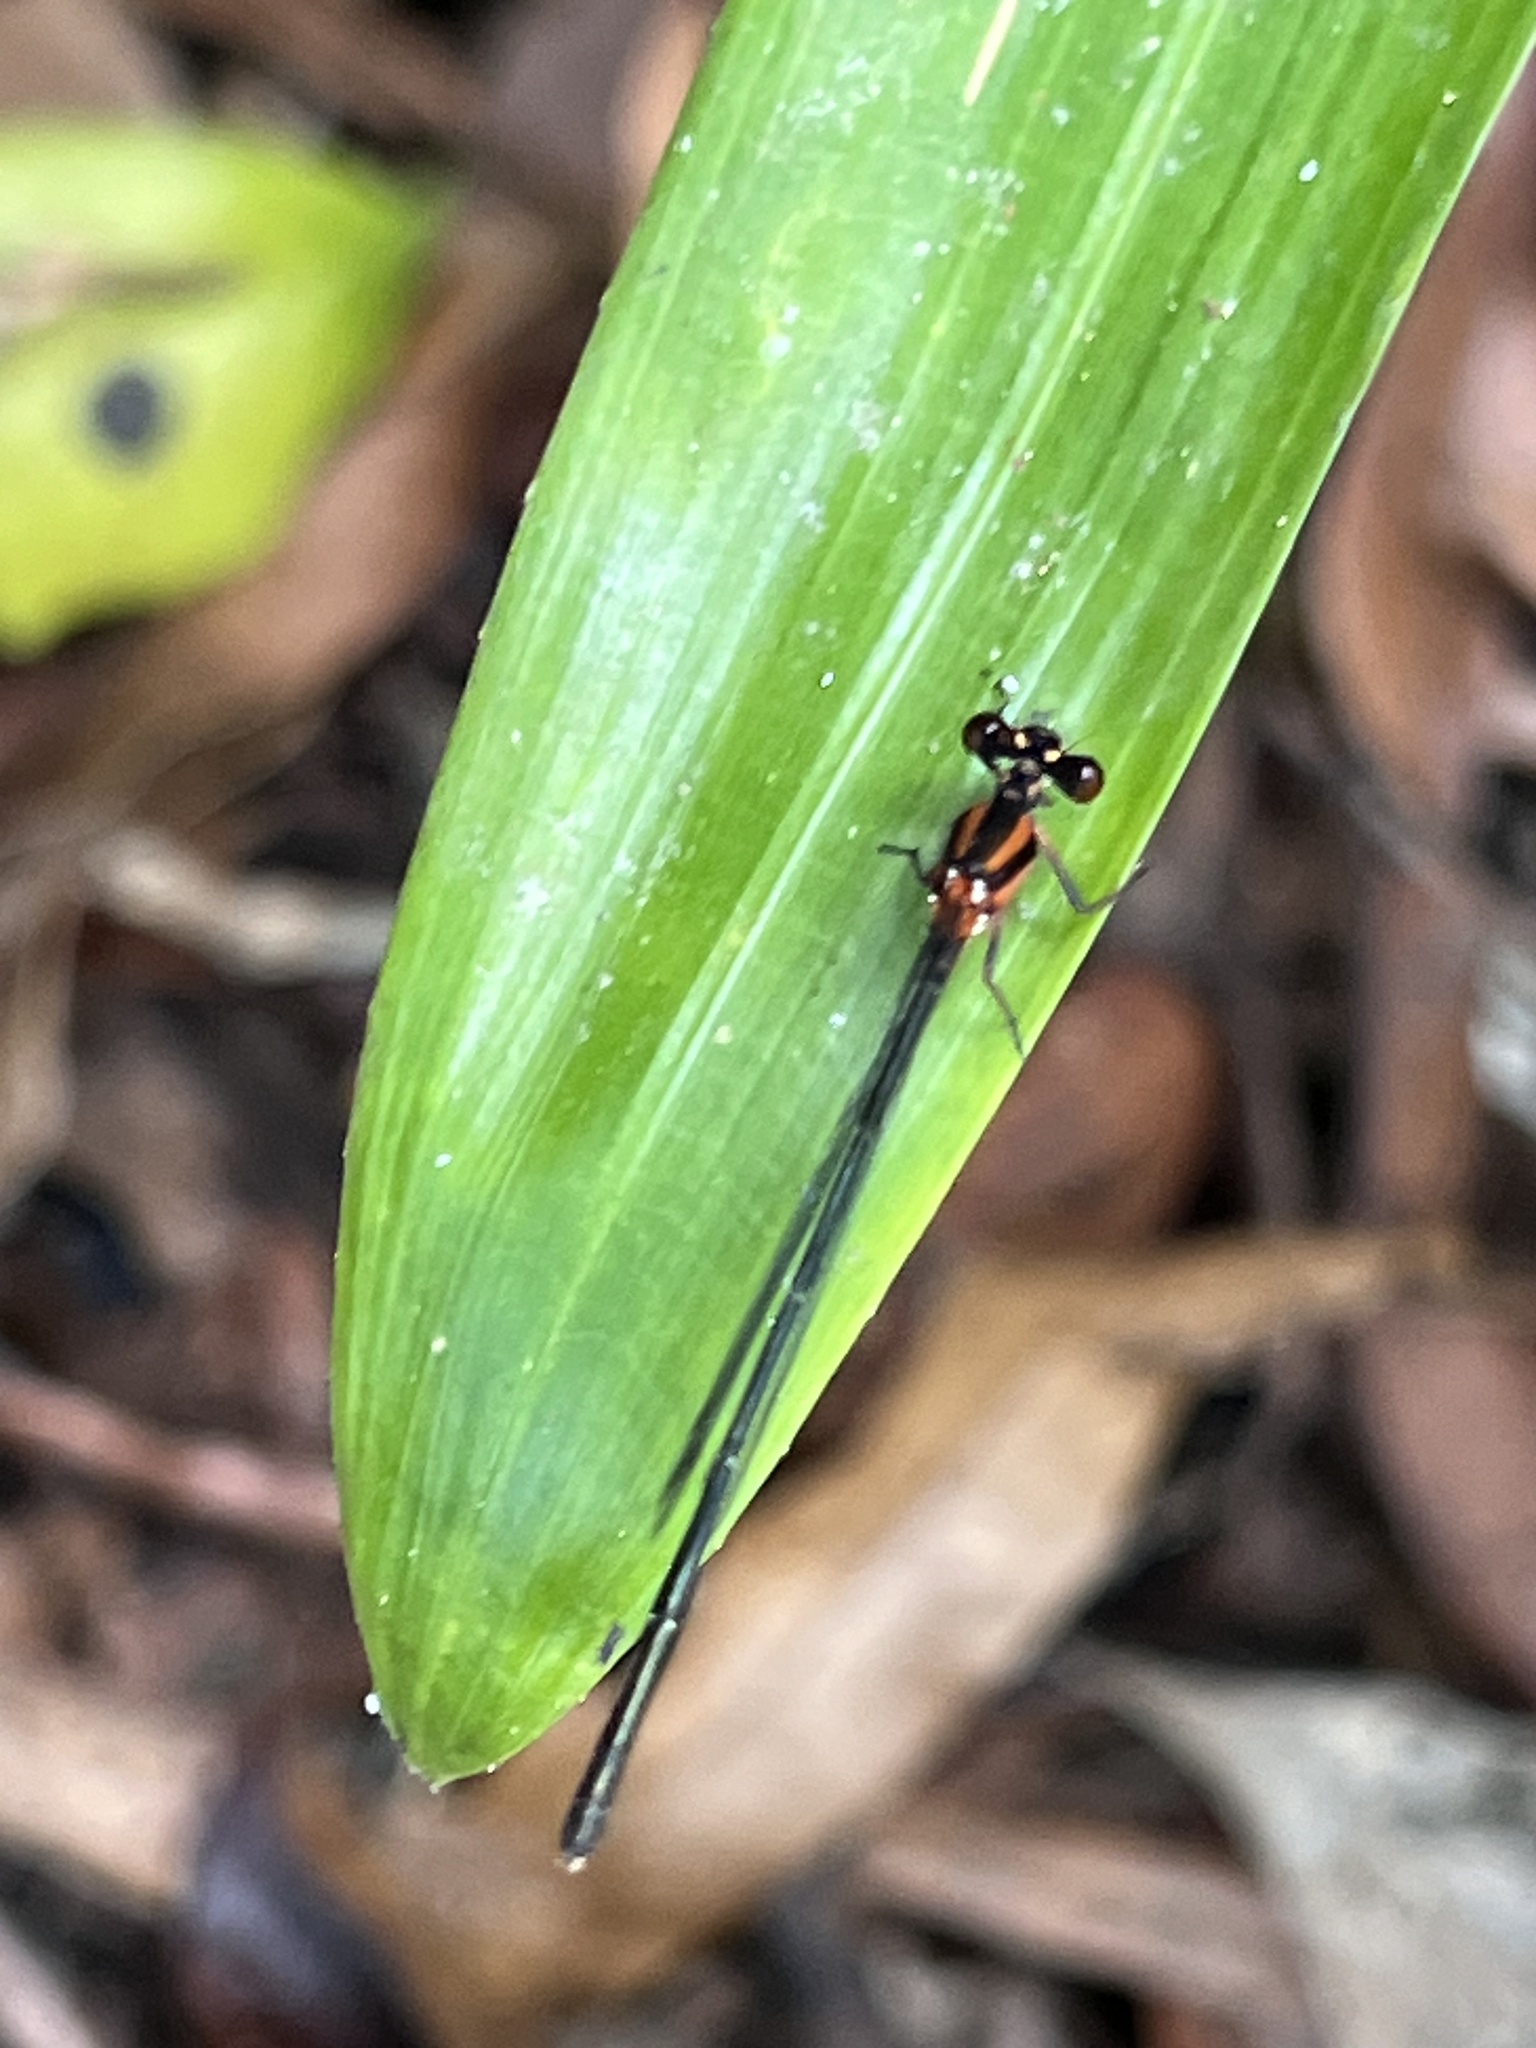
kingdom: Animalia
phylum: Arthropoda
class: Insecta
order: Odonata
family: Platycnemididae
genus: Nososticta
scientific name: Nososticta solida
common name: Orange threadtail
